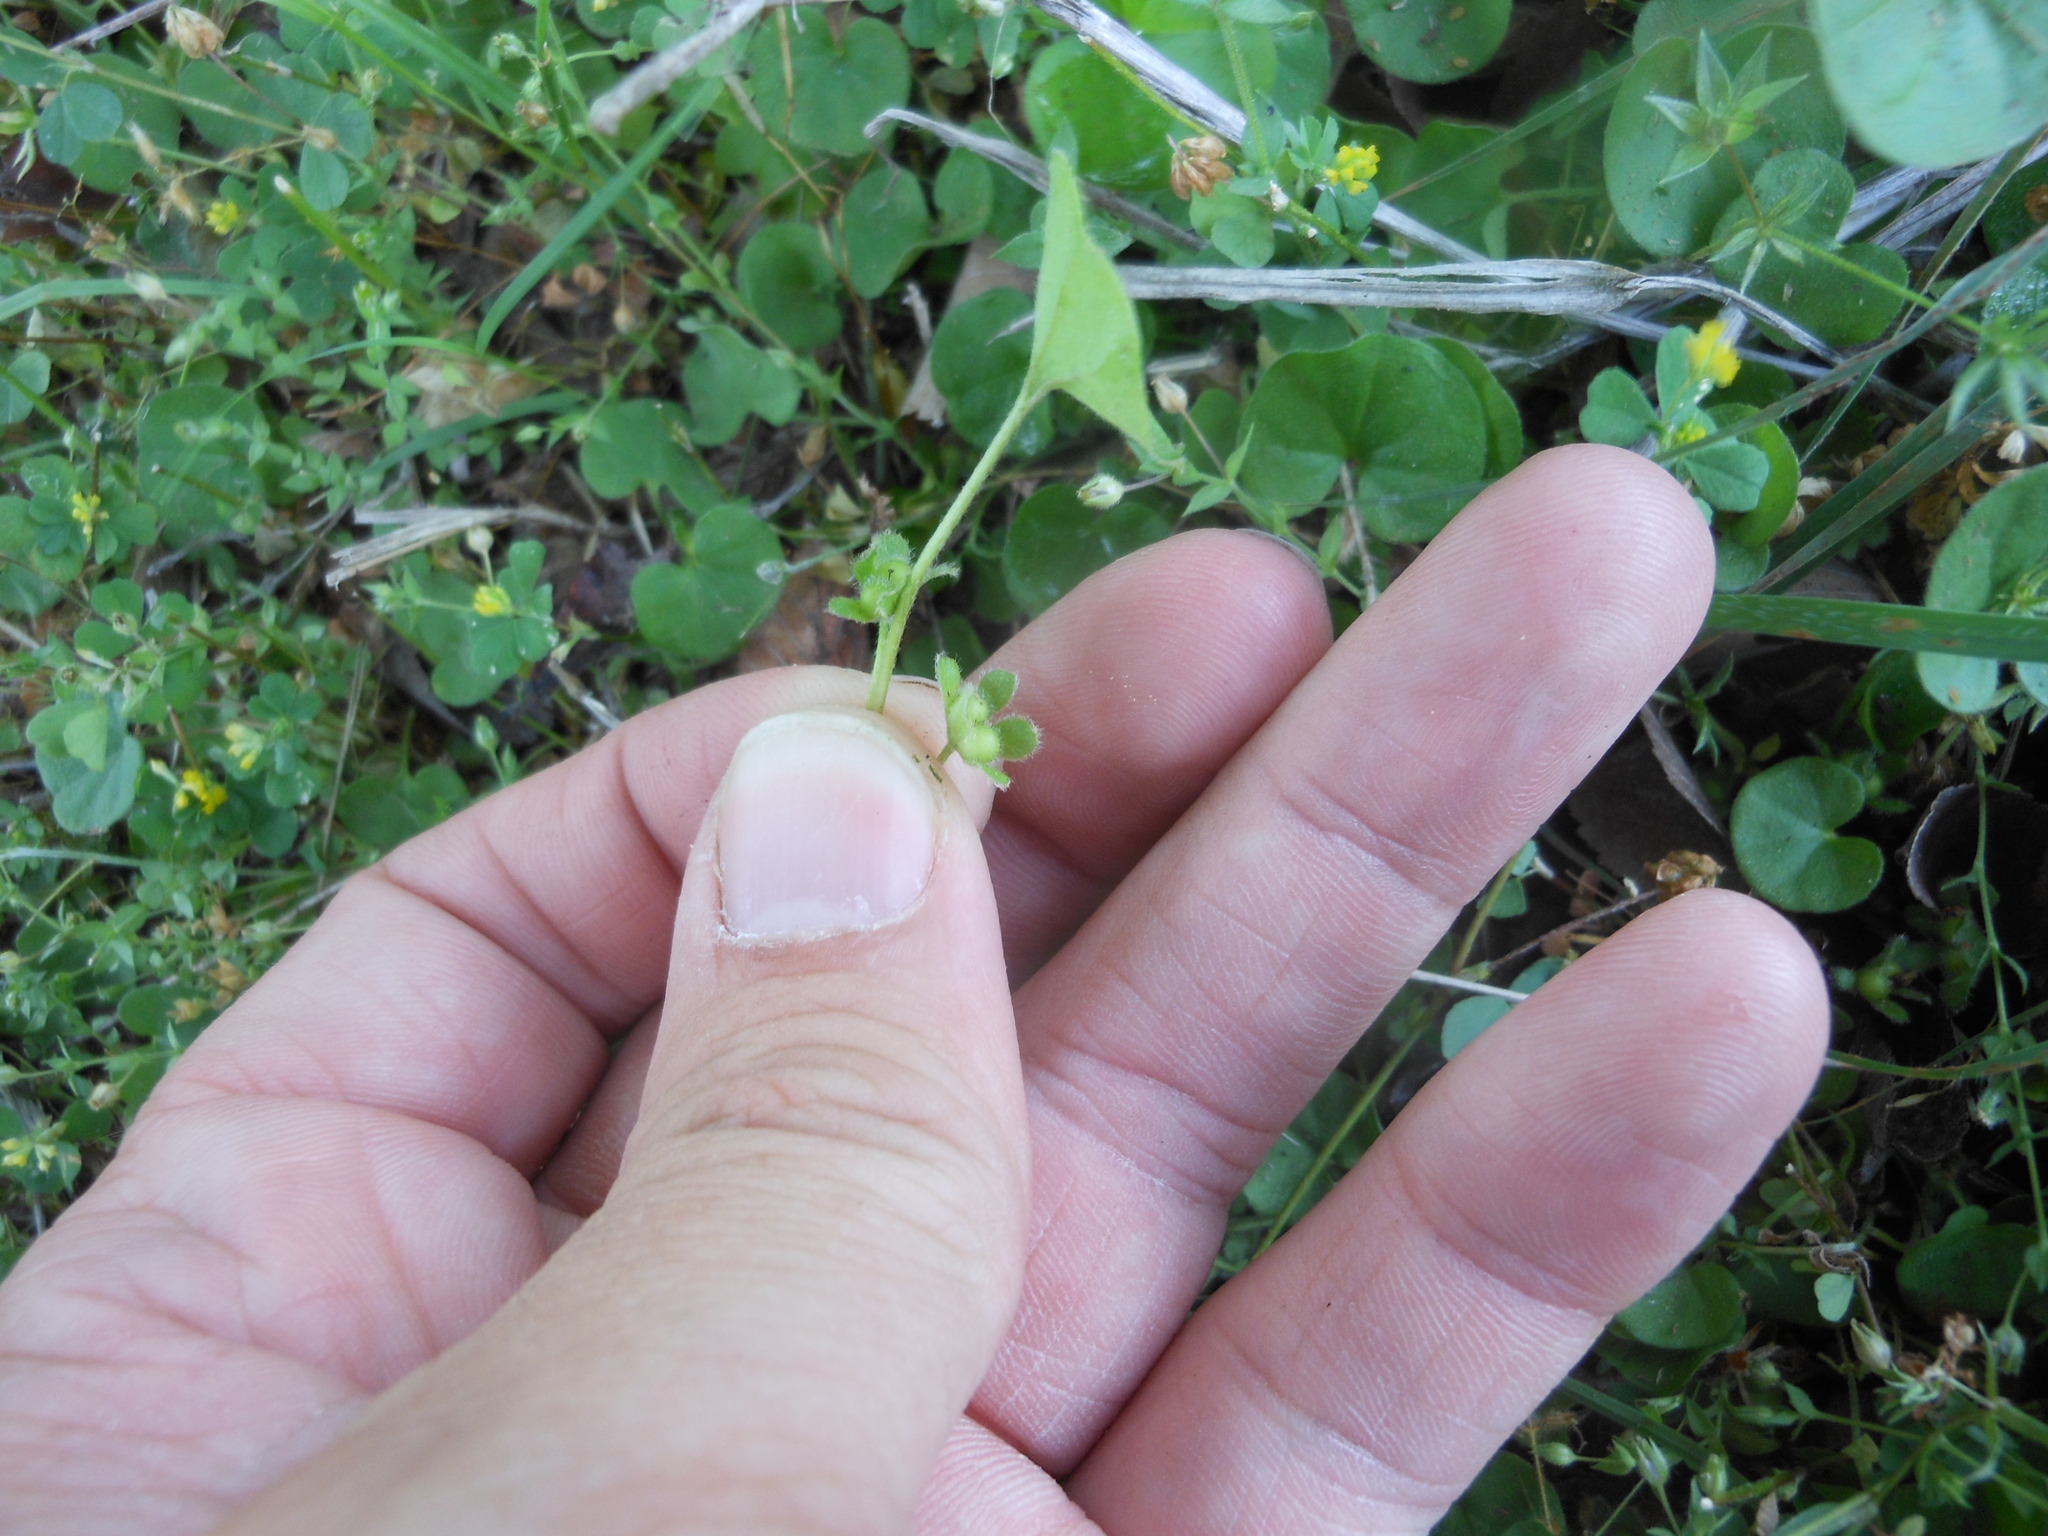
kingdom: Plantae
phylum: Tracheophyta
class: Magnoliopsida
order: Solanales
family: Convolvulaceae
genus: Dichondra
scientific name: Dichondra carolinensis
